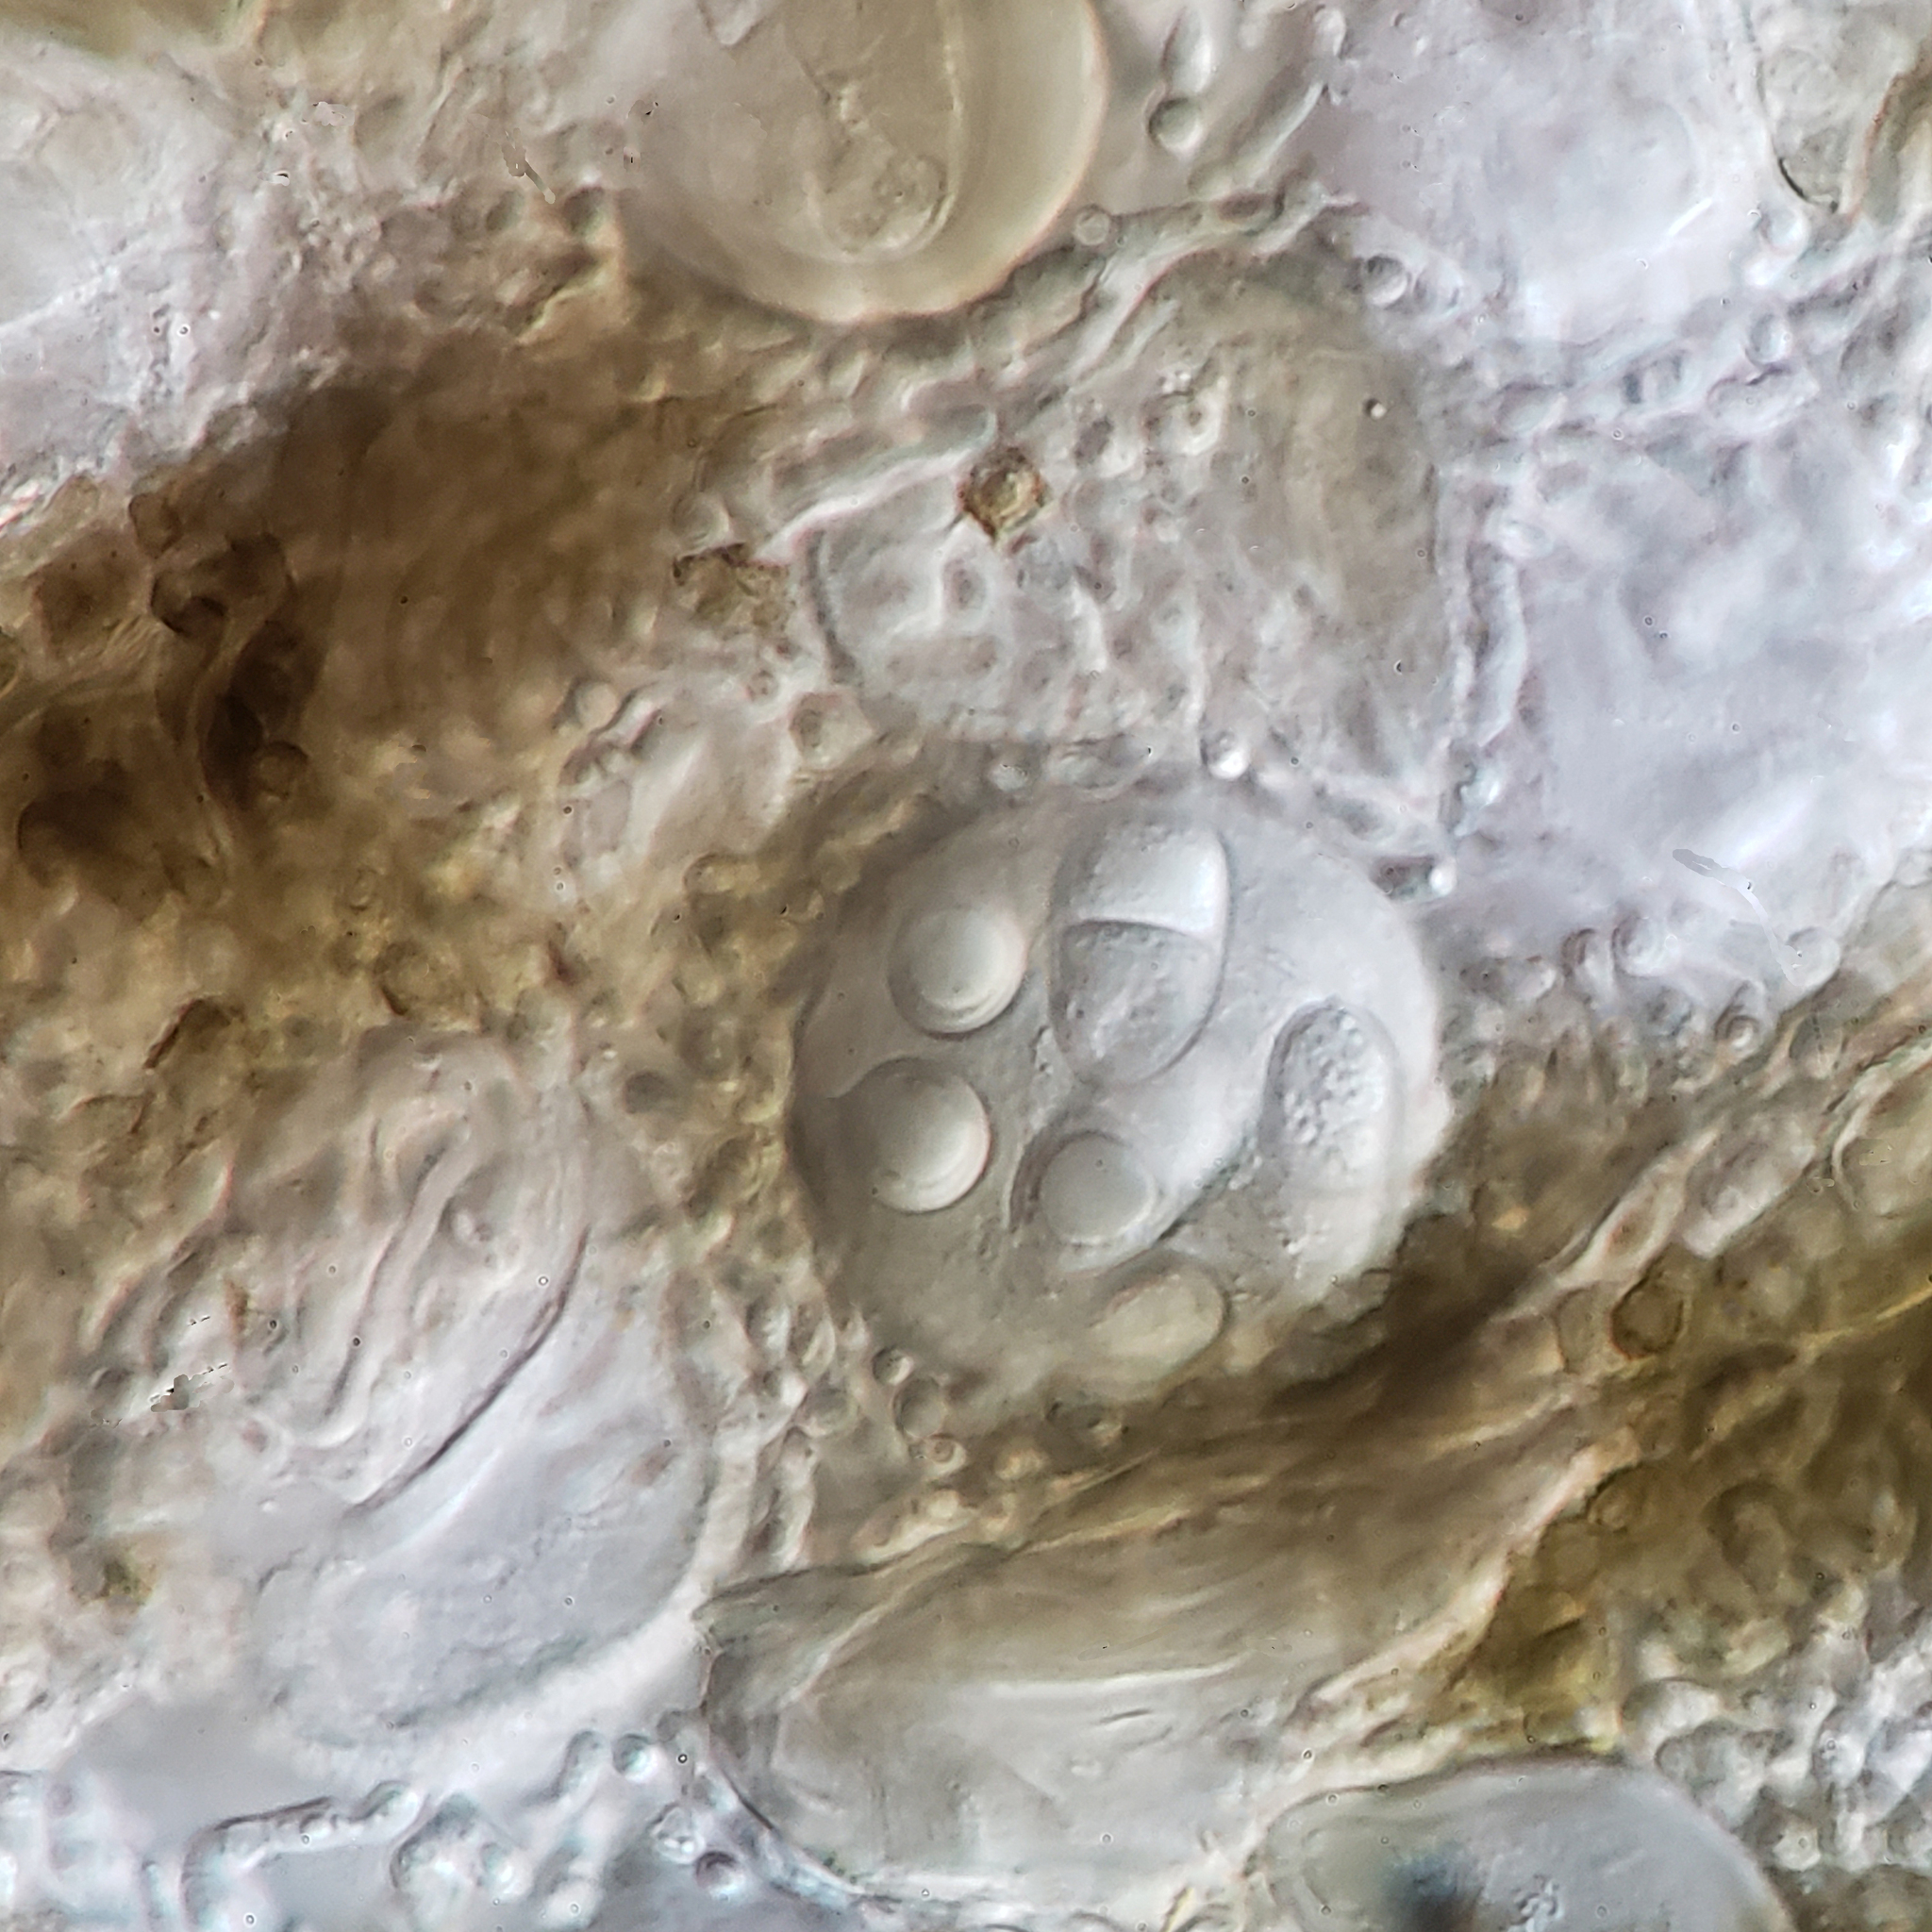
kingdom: Fungi
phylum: Ascomycota
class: Arthoniomycetes
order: Arthoniales
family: Arthoniaceae
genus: Arthonia
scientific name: Arthonia granosa
